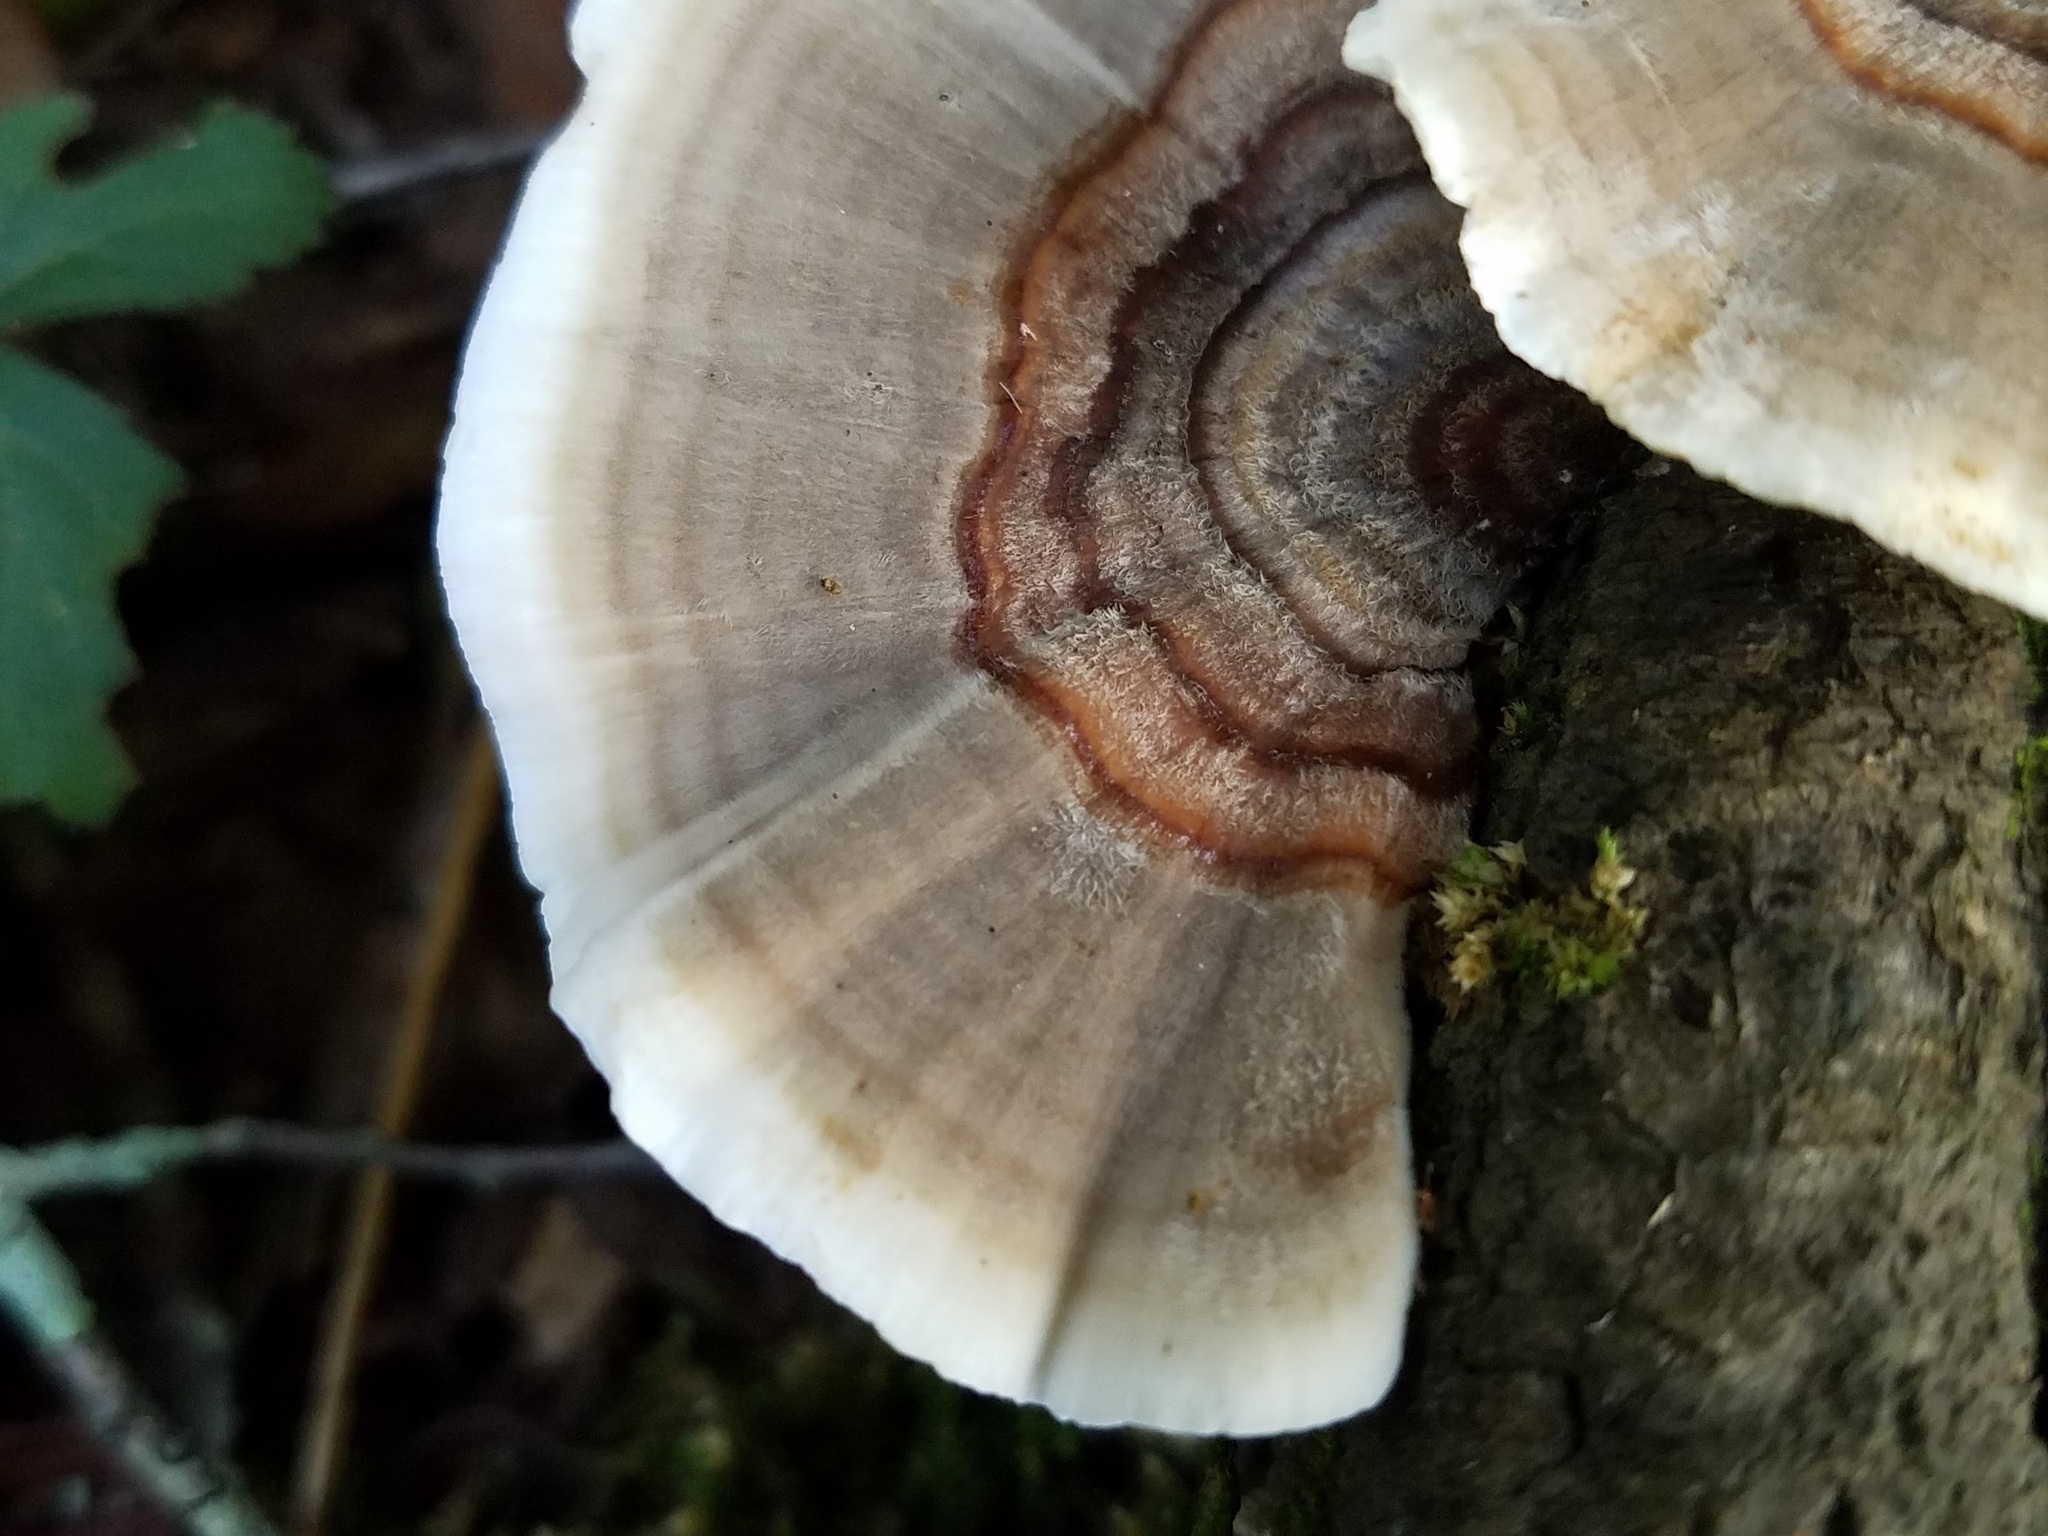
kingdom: Fungi
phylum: Basidiomycota
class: Agaricomycetes
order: Polyporales
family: Polyporaceae
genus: Trametes
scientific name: Trametes versicolor
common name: Turkeytail
